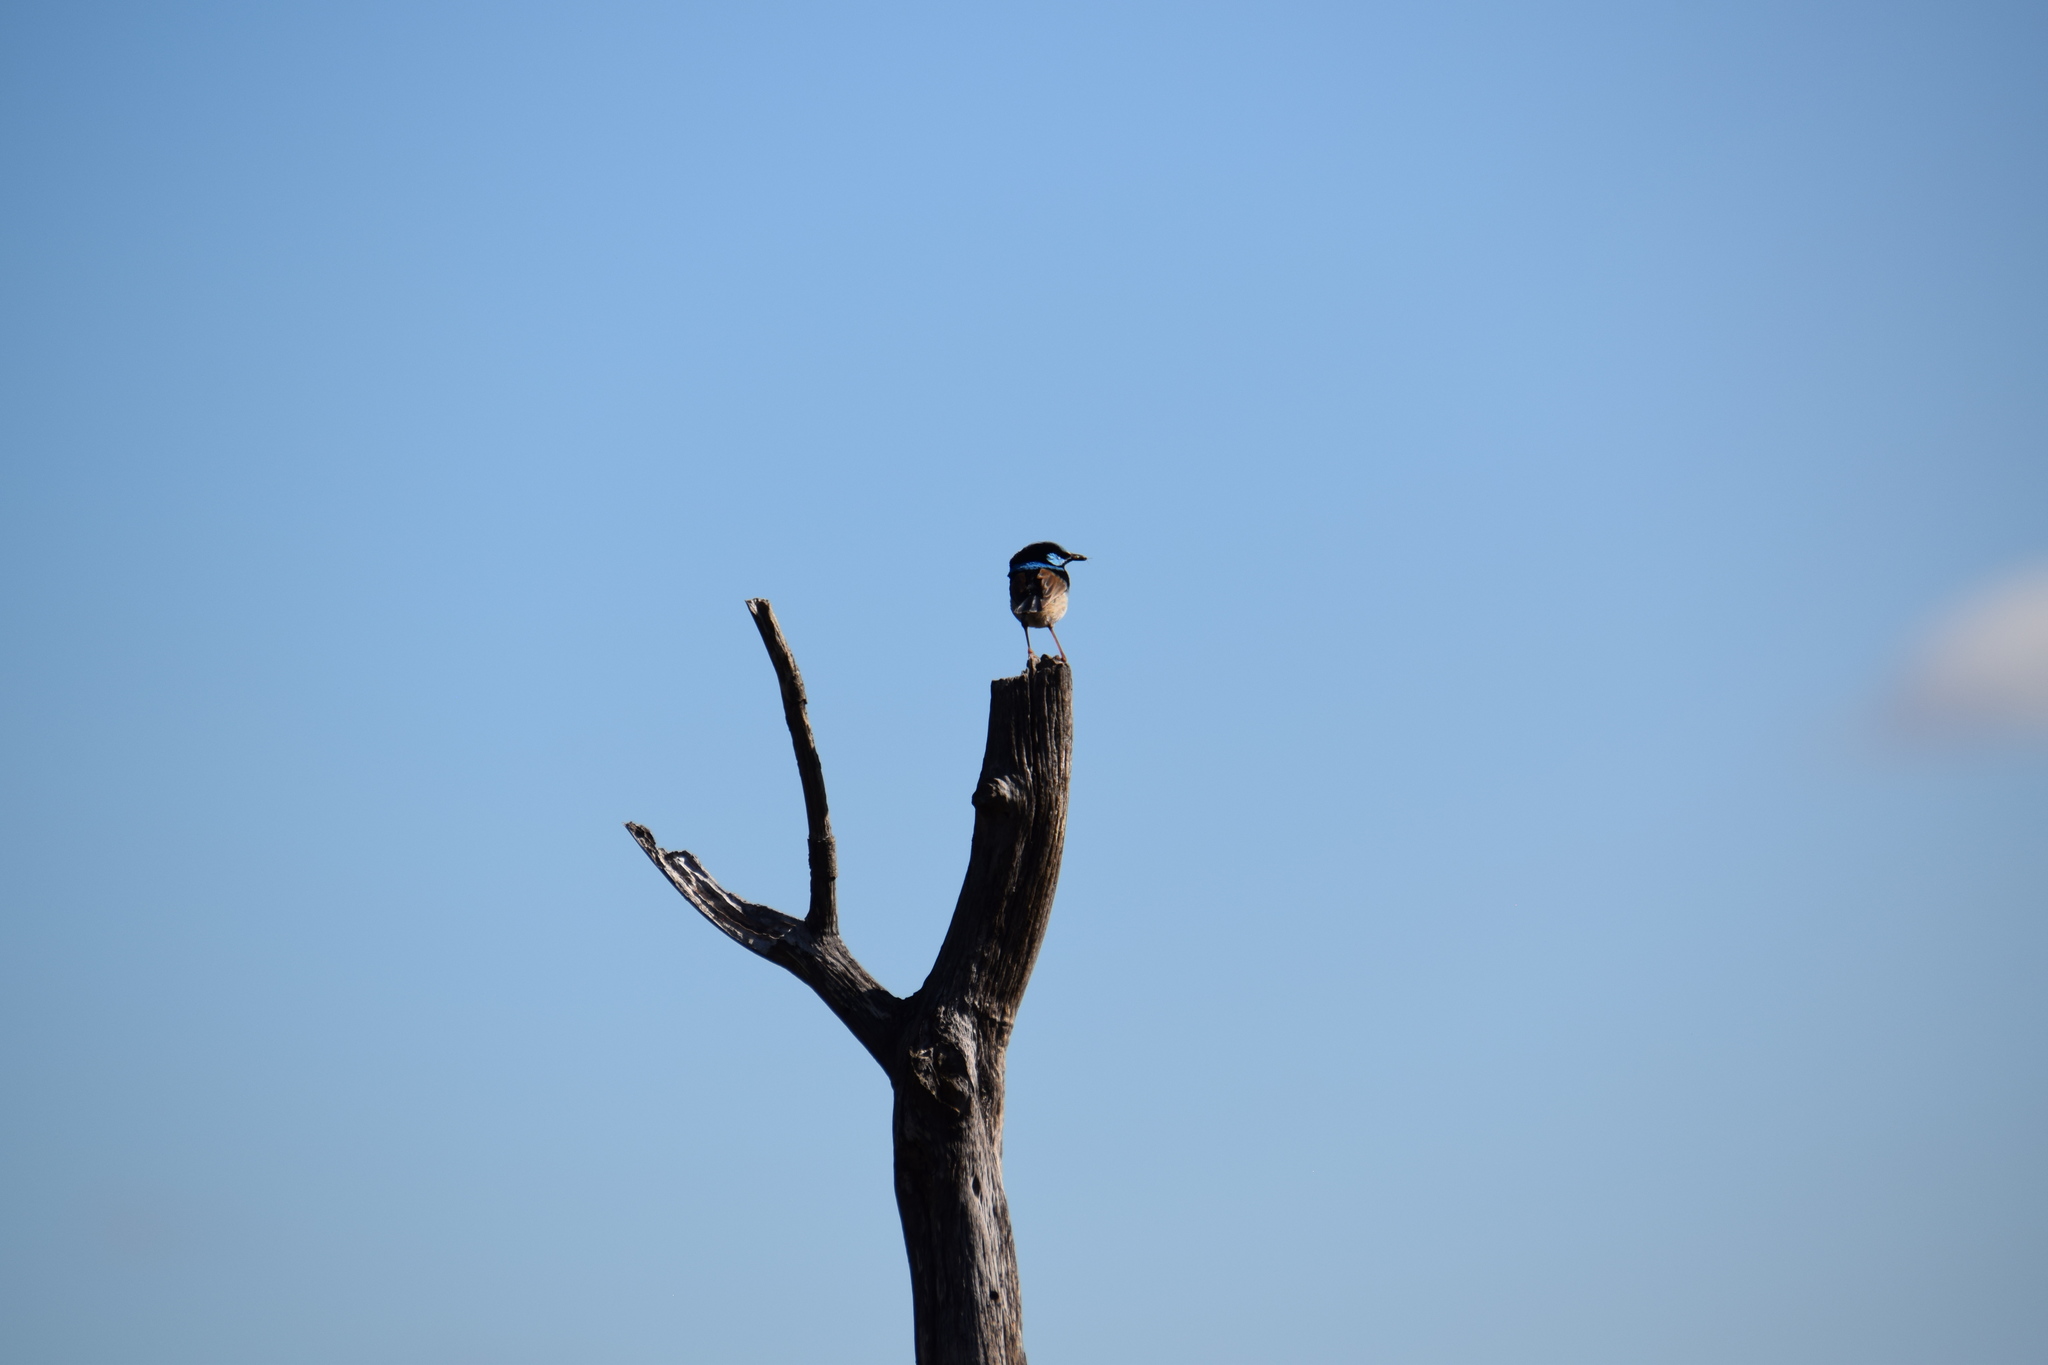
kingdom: Animalia
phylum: Chordata
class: Aves
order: Passeriformes
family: Maluridae
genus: Malurus
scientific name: Malurus cyaneus
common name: Superb fairywren
